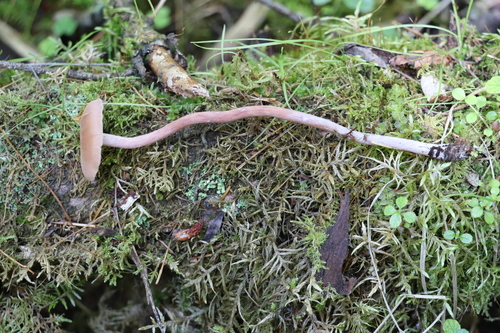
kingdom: Fungi
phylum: Basidiomycota
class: Agaricomycetes
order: Agaricales
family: Hydnangiaceae
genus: Laccaria
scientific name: Laccaria bicolor
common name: Bicoloured deceiver
